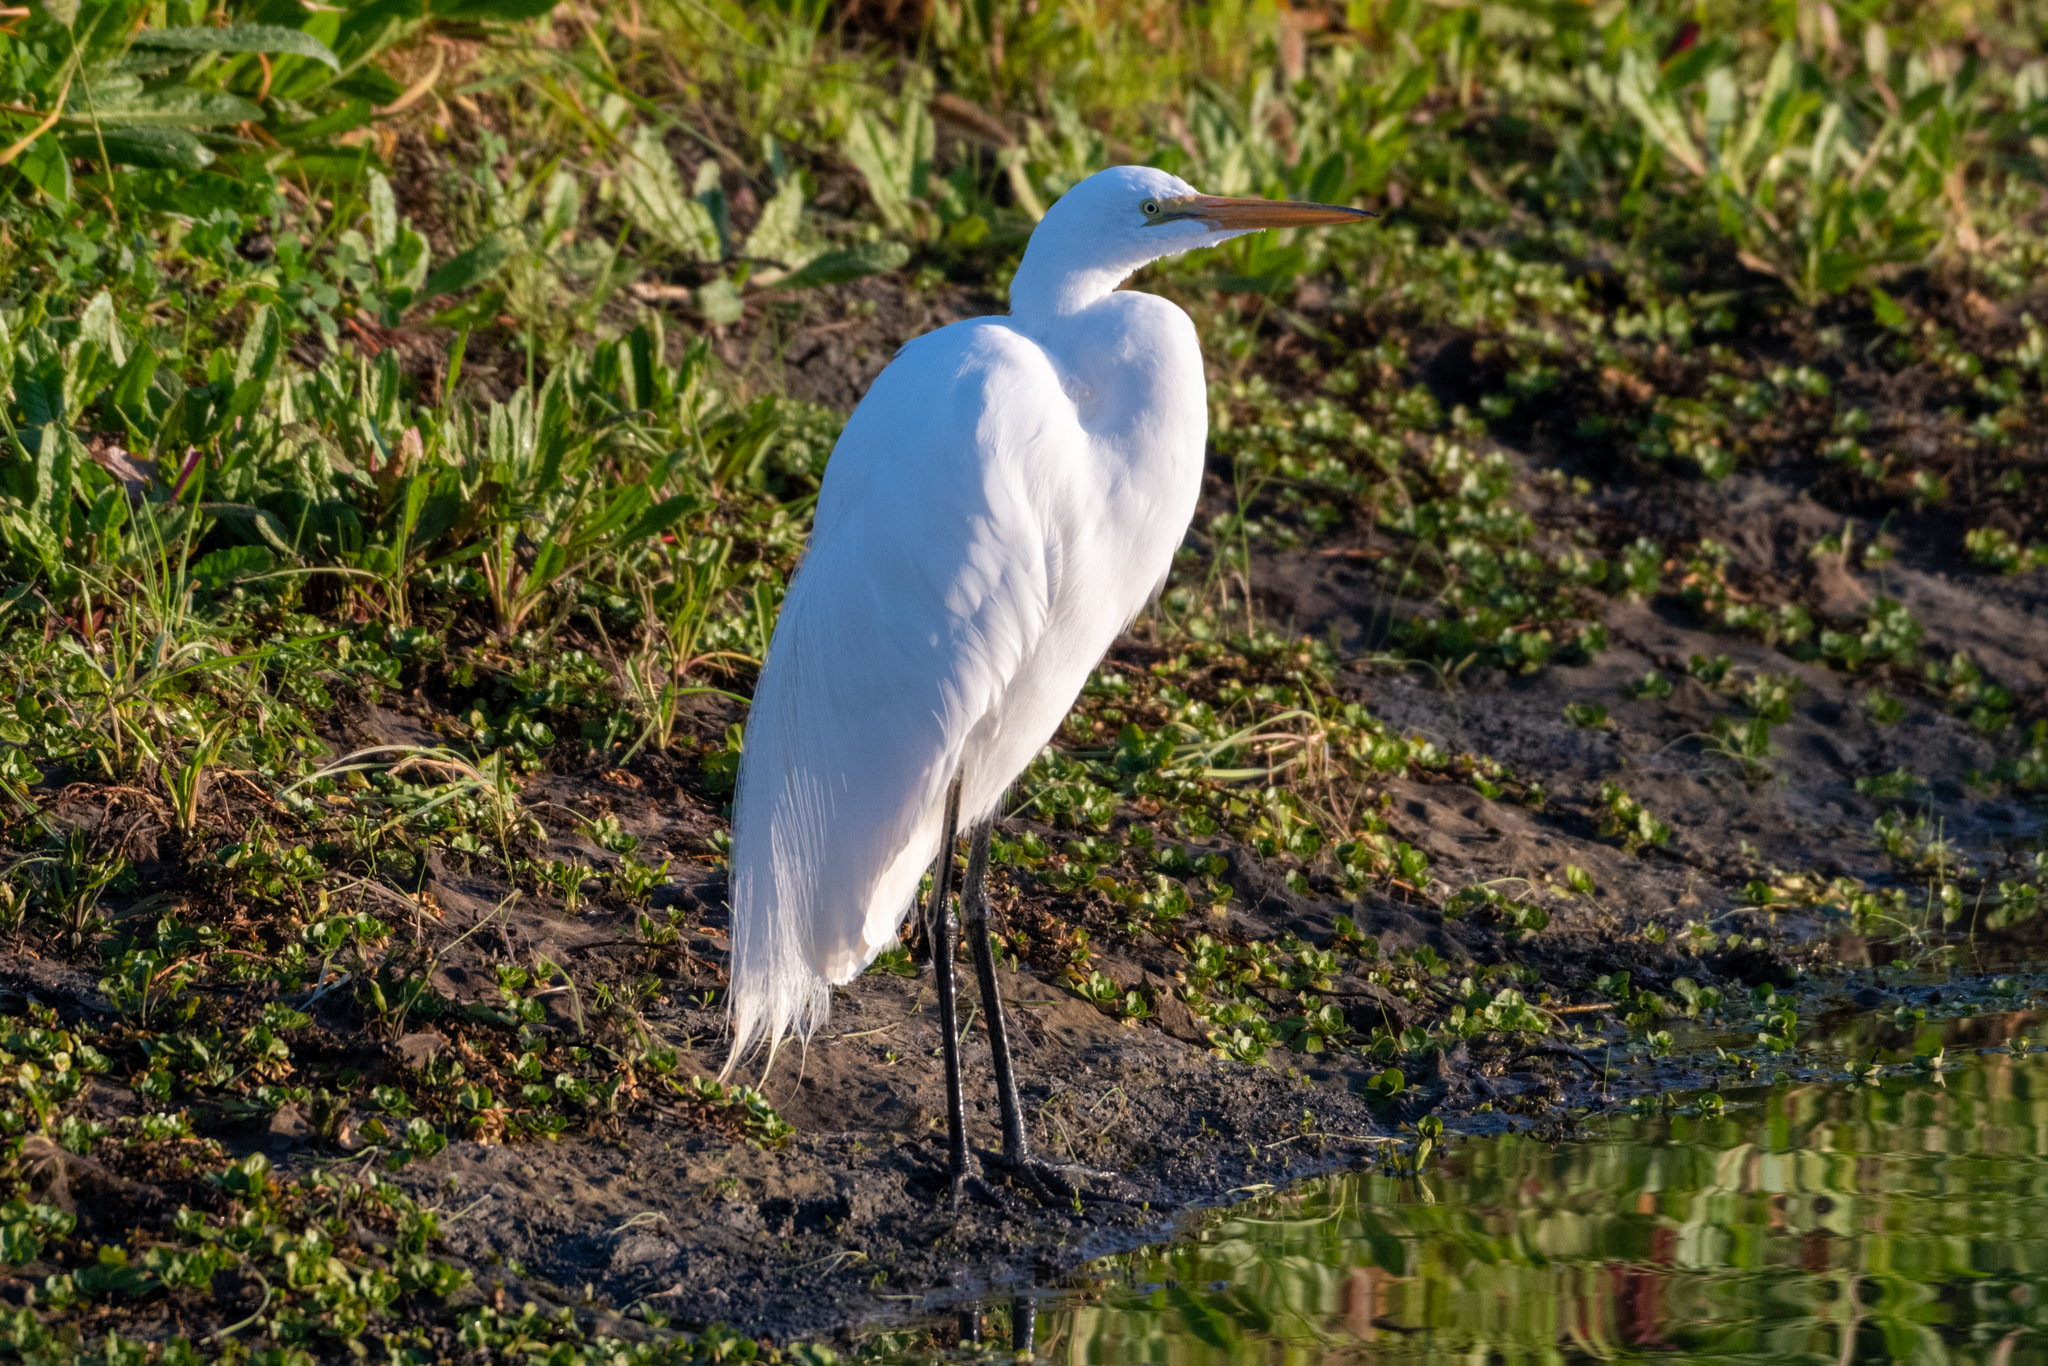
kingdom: Animalia
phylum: Chordata
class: Aves
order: Pelecaniformes
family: Ardeidae
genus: Ardea
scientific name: Ardea alba
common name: Great egret
